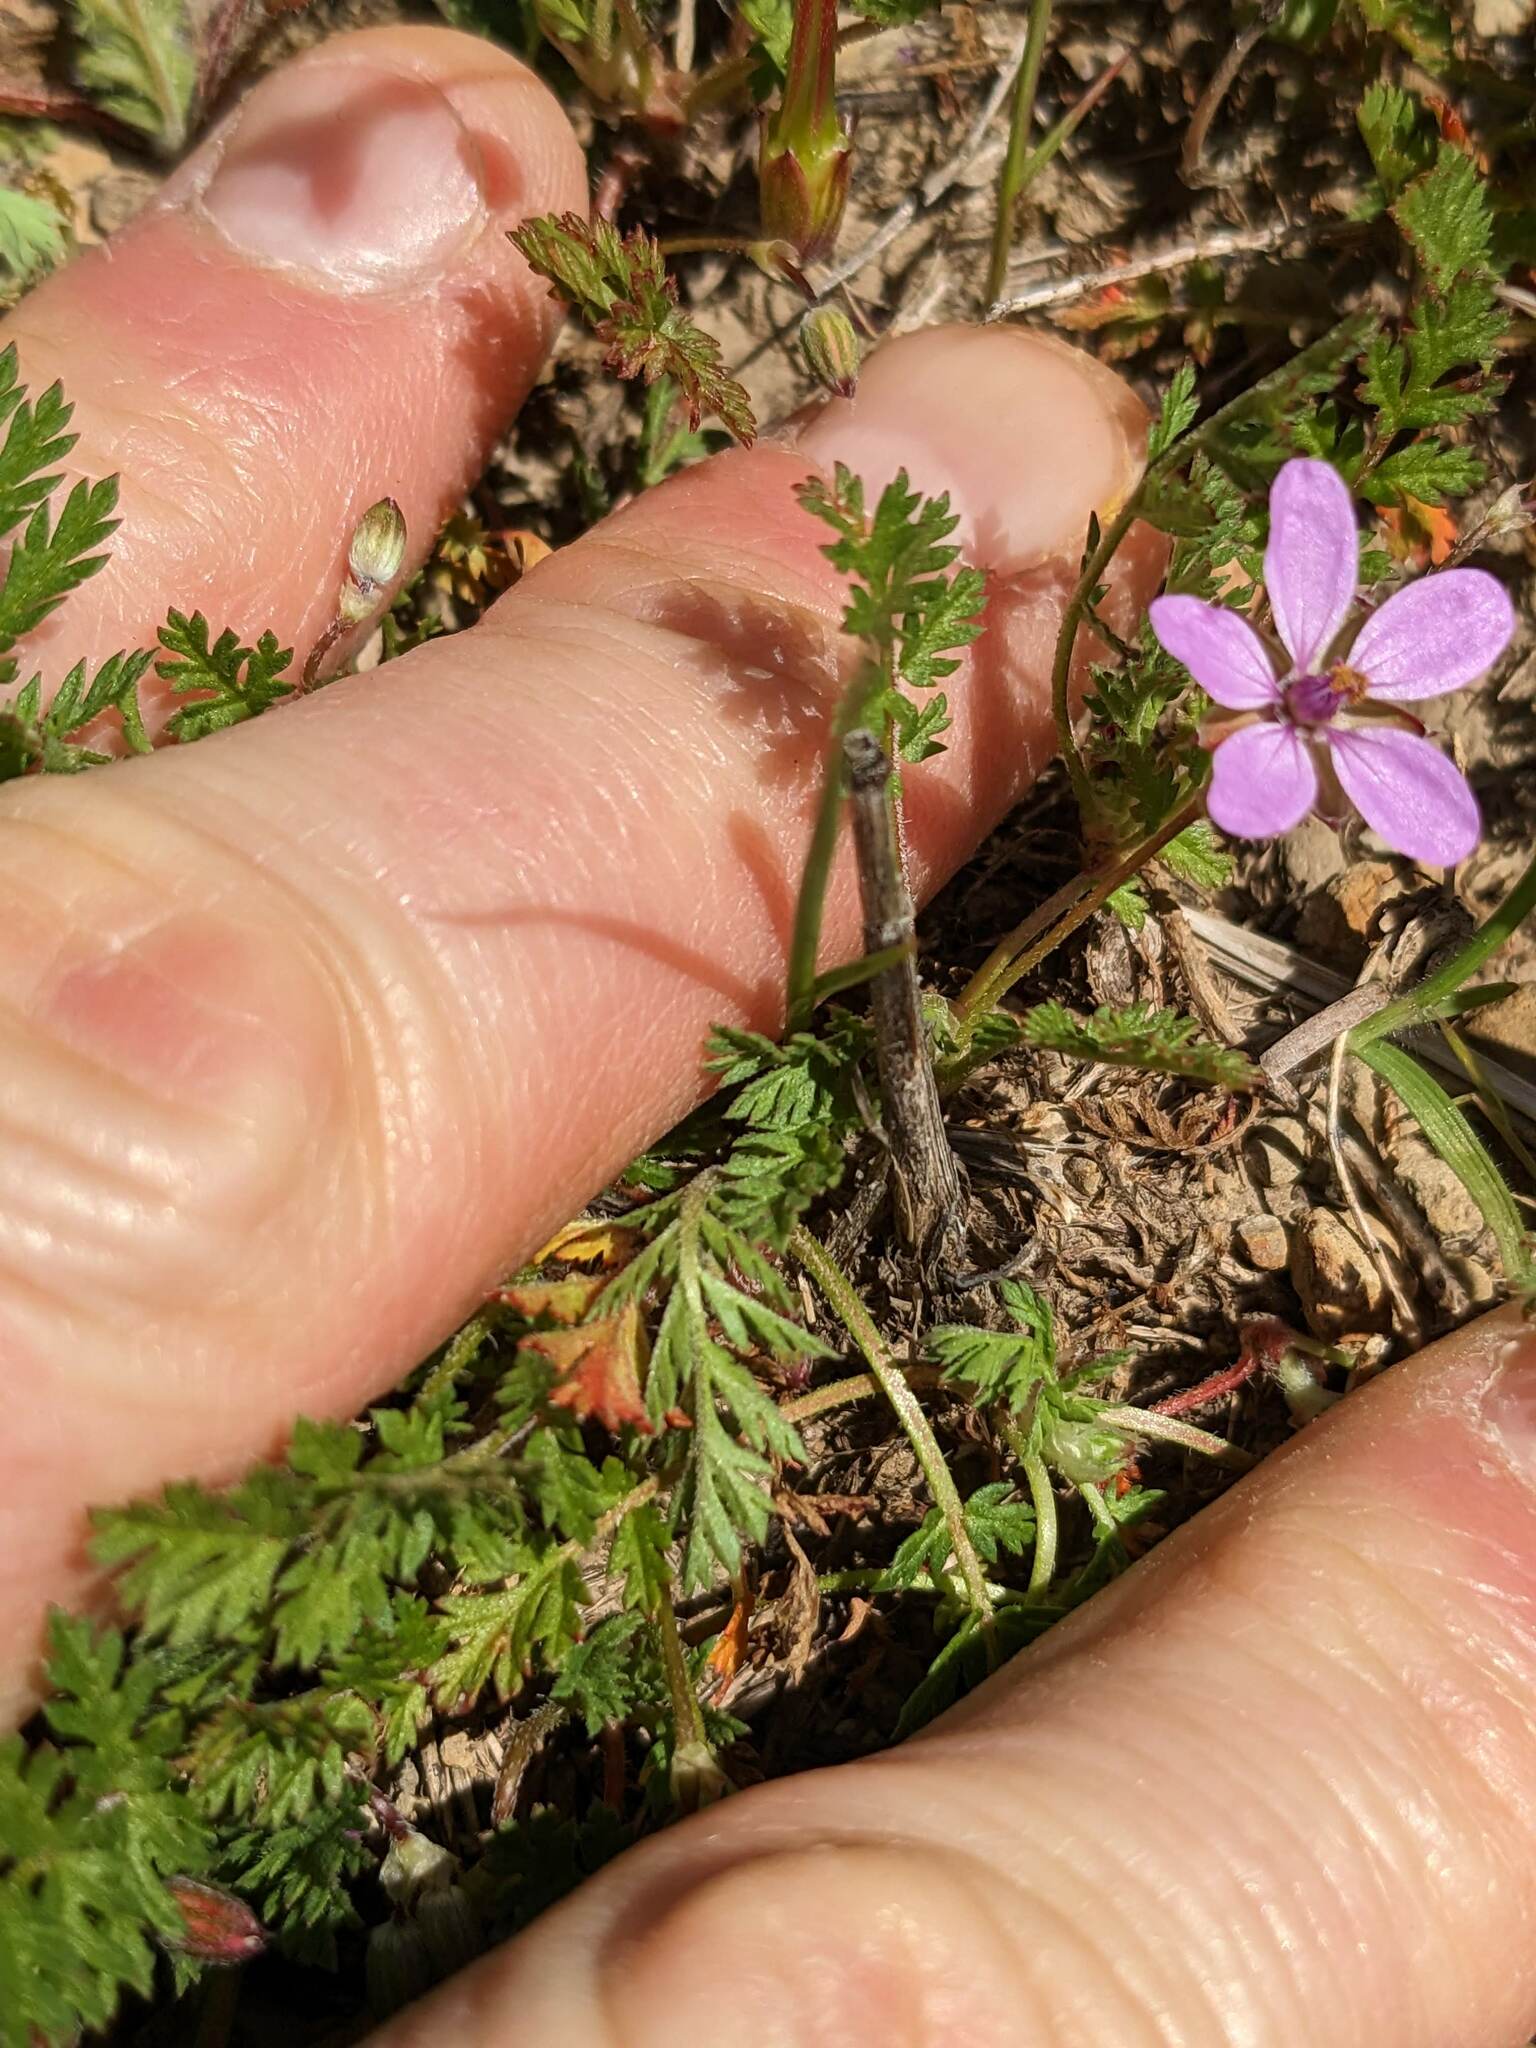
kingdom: Plantae
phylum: Tracheophyta
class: Magnoliopsida
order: Geraniales
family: Geraniaceae
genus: Erodium
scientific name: Erodium cicutarium
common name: Common stork's-bill
